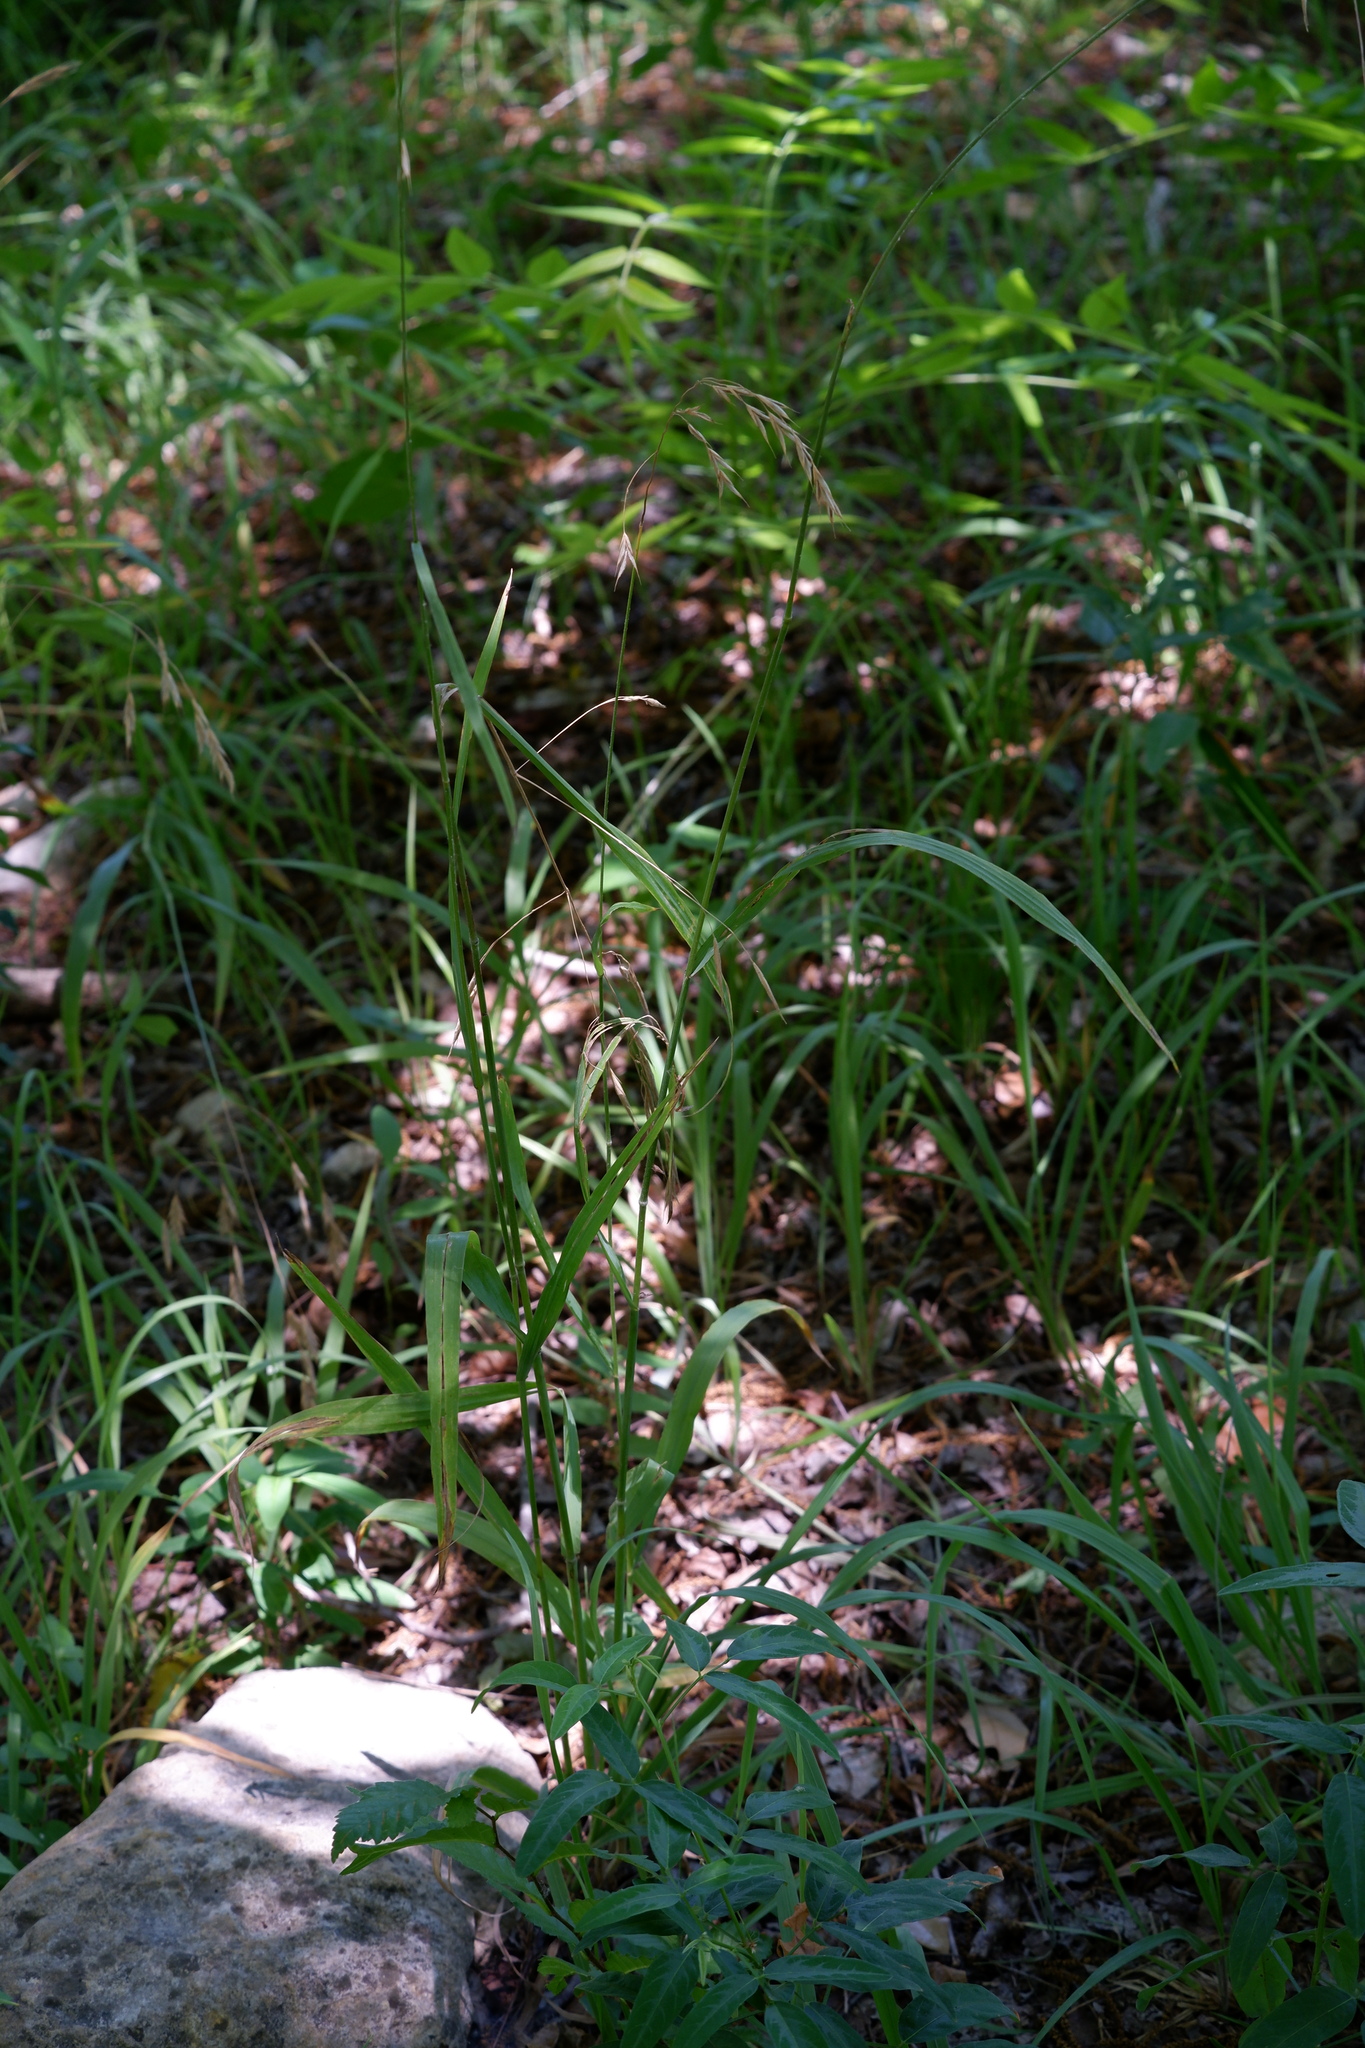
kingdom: Plantae
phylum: Tracheophyta
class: Liliopsida
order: Poales
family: Poaceae
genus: Bromus
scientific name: Bromus pubescens
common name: Hairy wood brome grass
